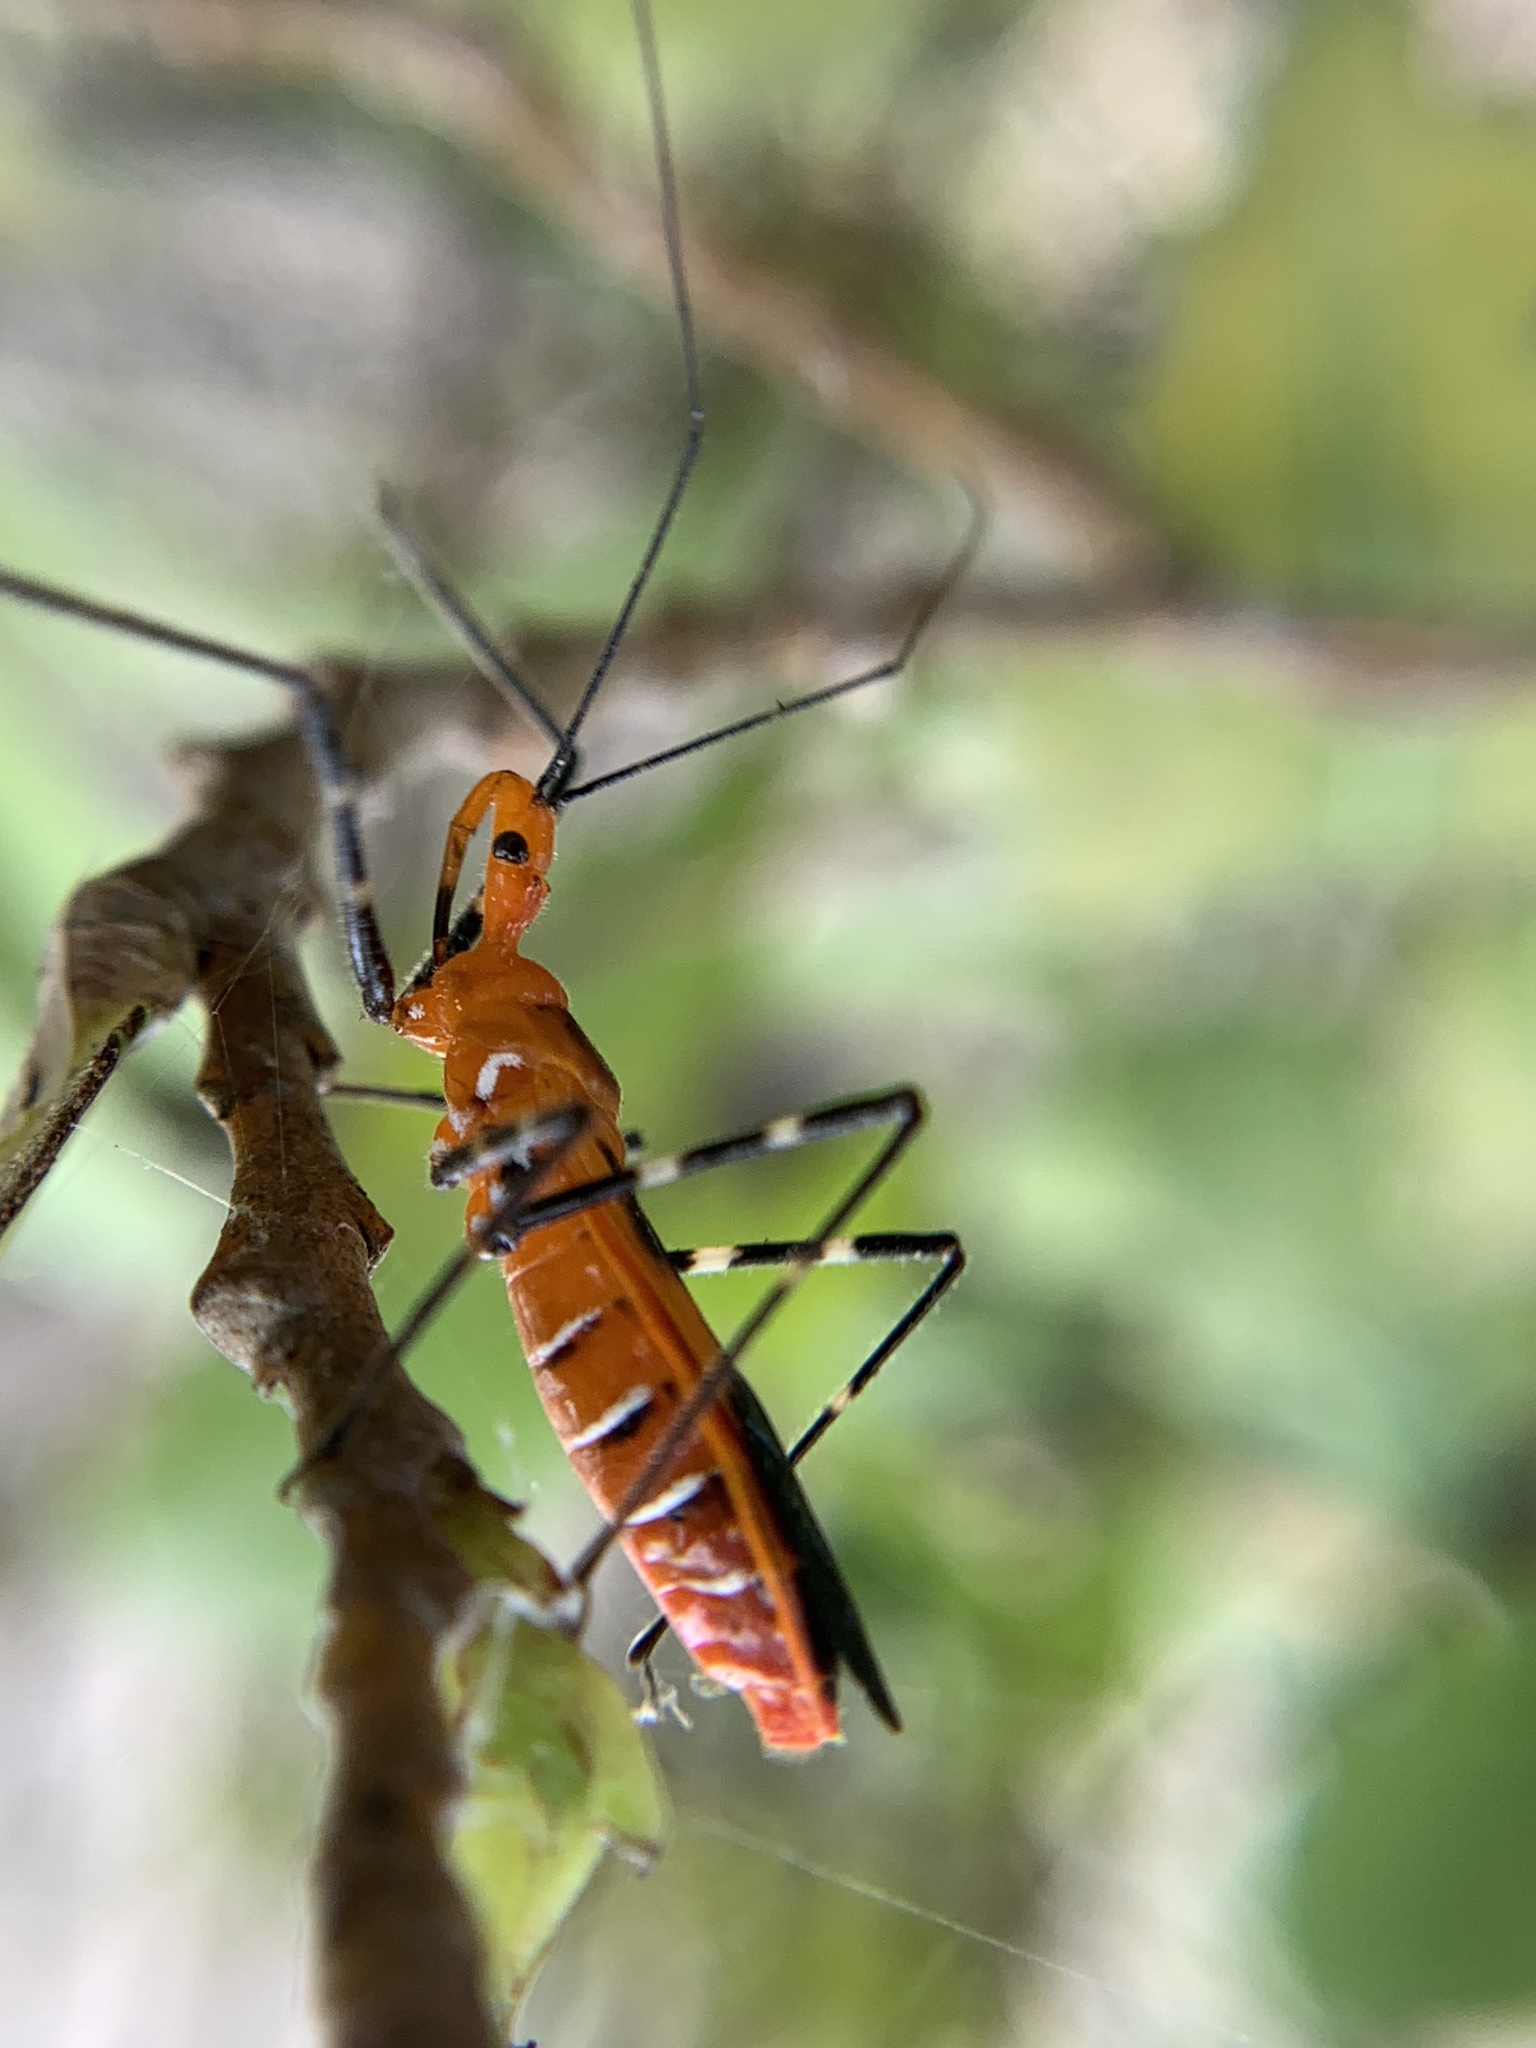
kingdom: Animalia
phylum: Arthropoda
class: Insecta
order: Hemiptera
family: Reduviidae
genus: Zelus
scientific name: Zelus longipes
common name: Milkweed assassin bug
